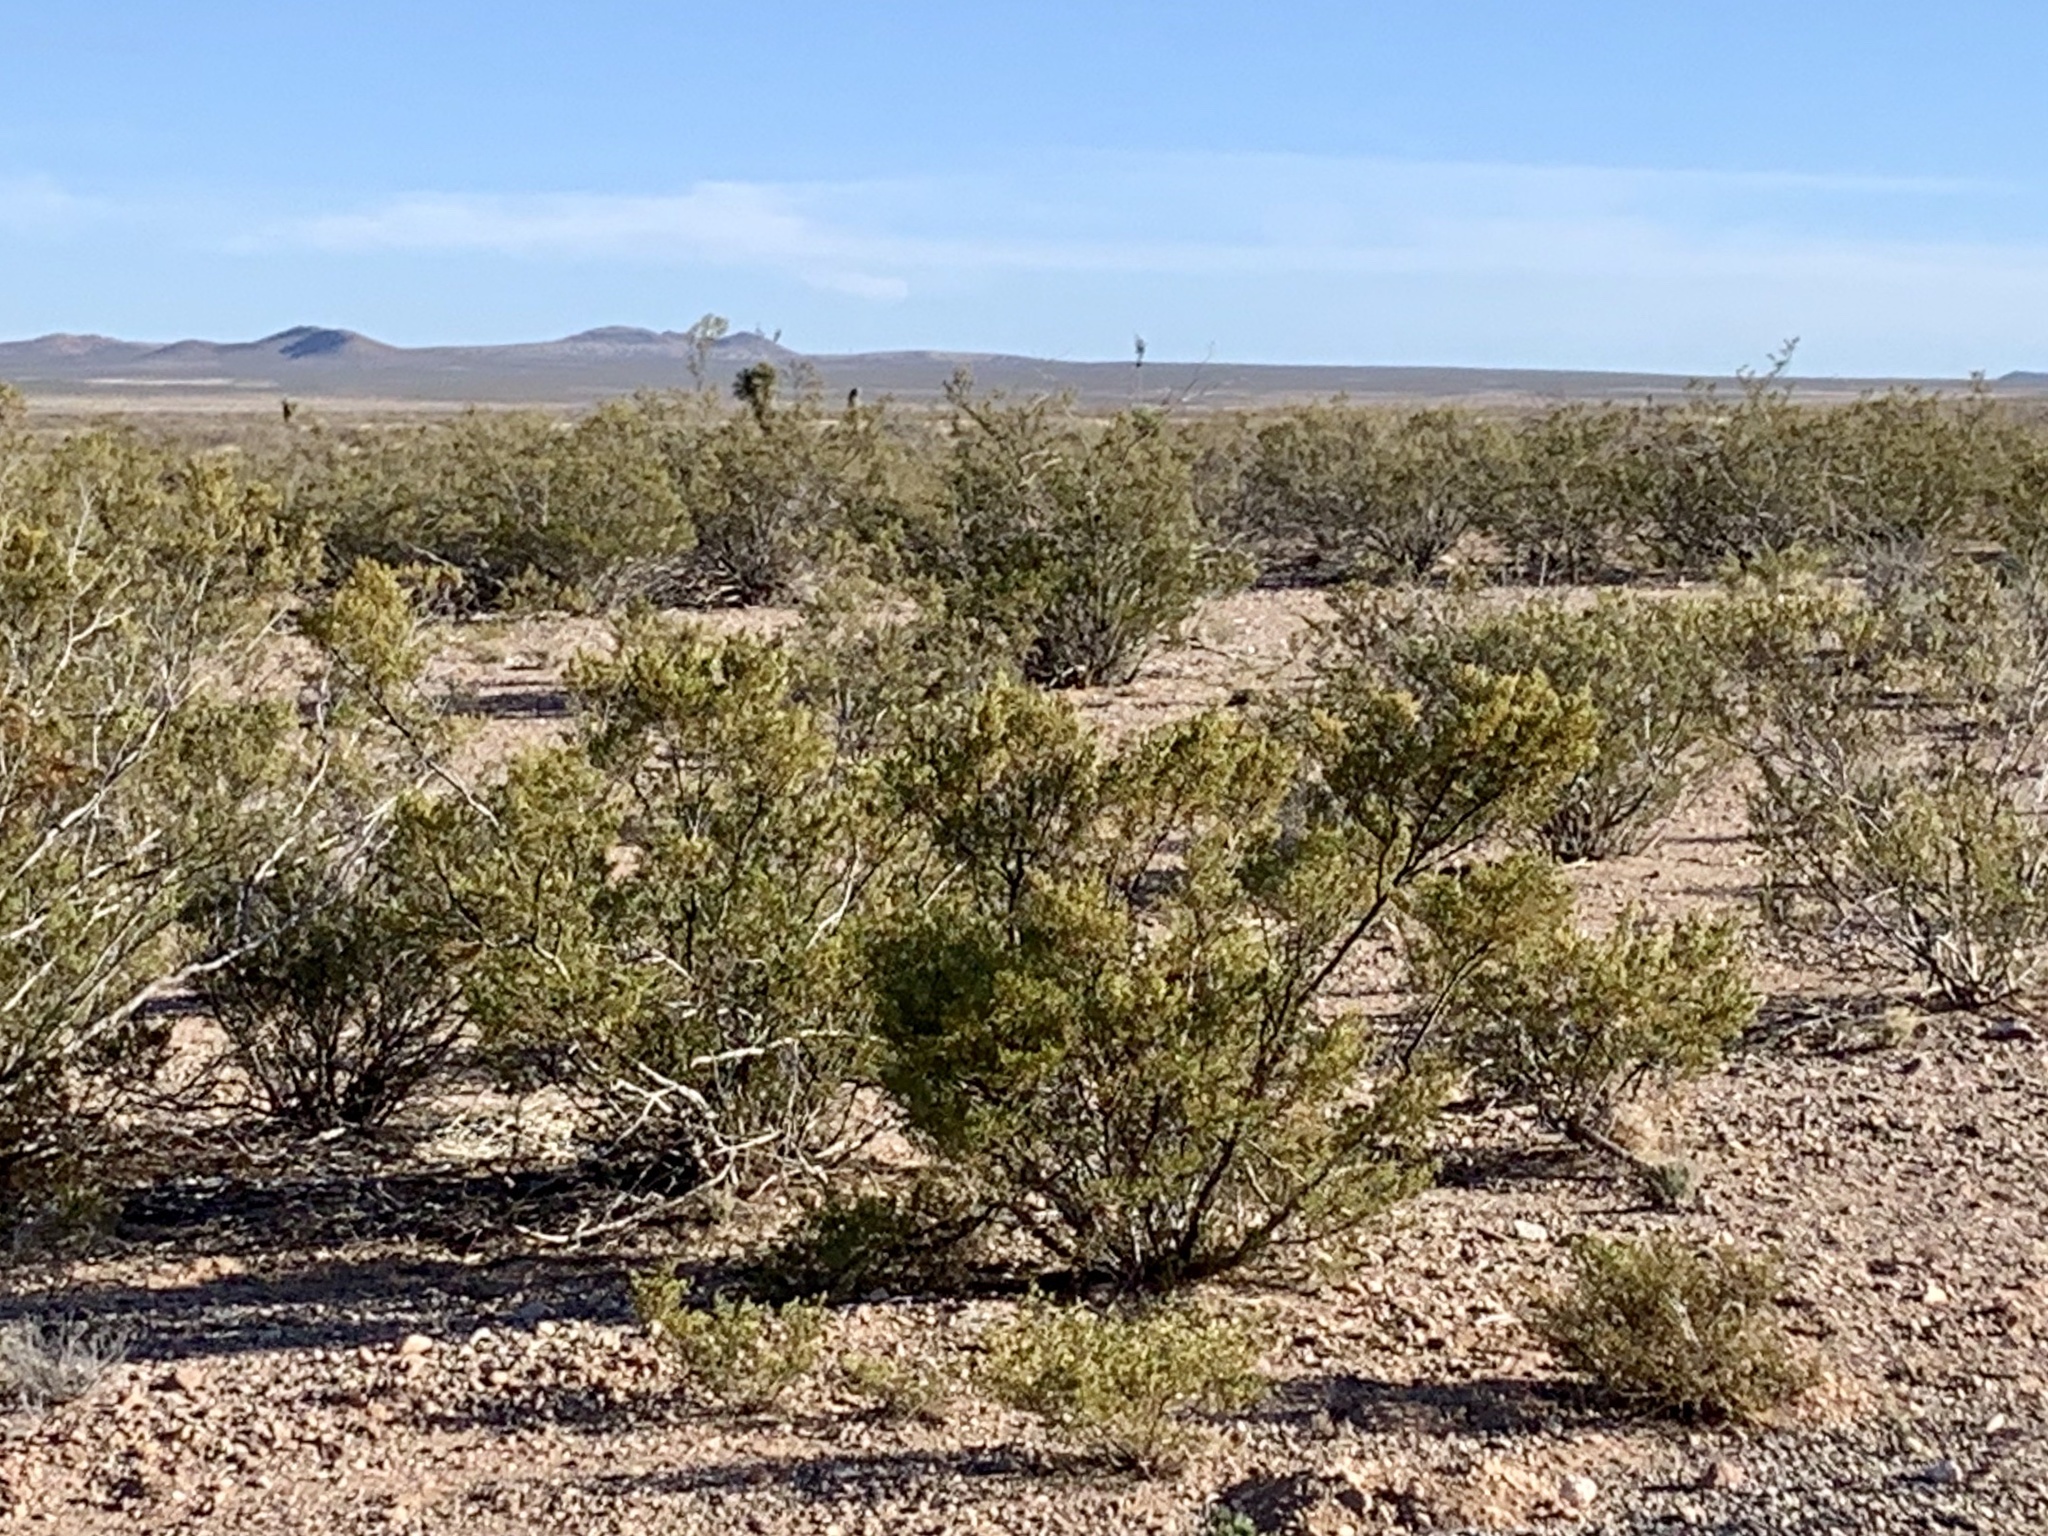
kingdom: Plantae
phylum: Tracheophyta
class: Magnoliopsida
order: Zygophyllales
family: Zygophyllaceae
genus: Larrea
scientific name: Larrea tridentata
